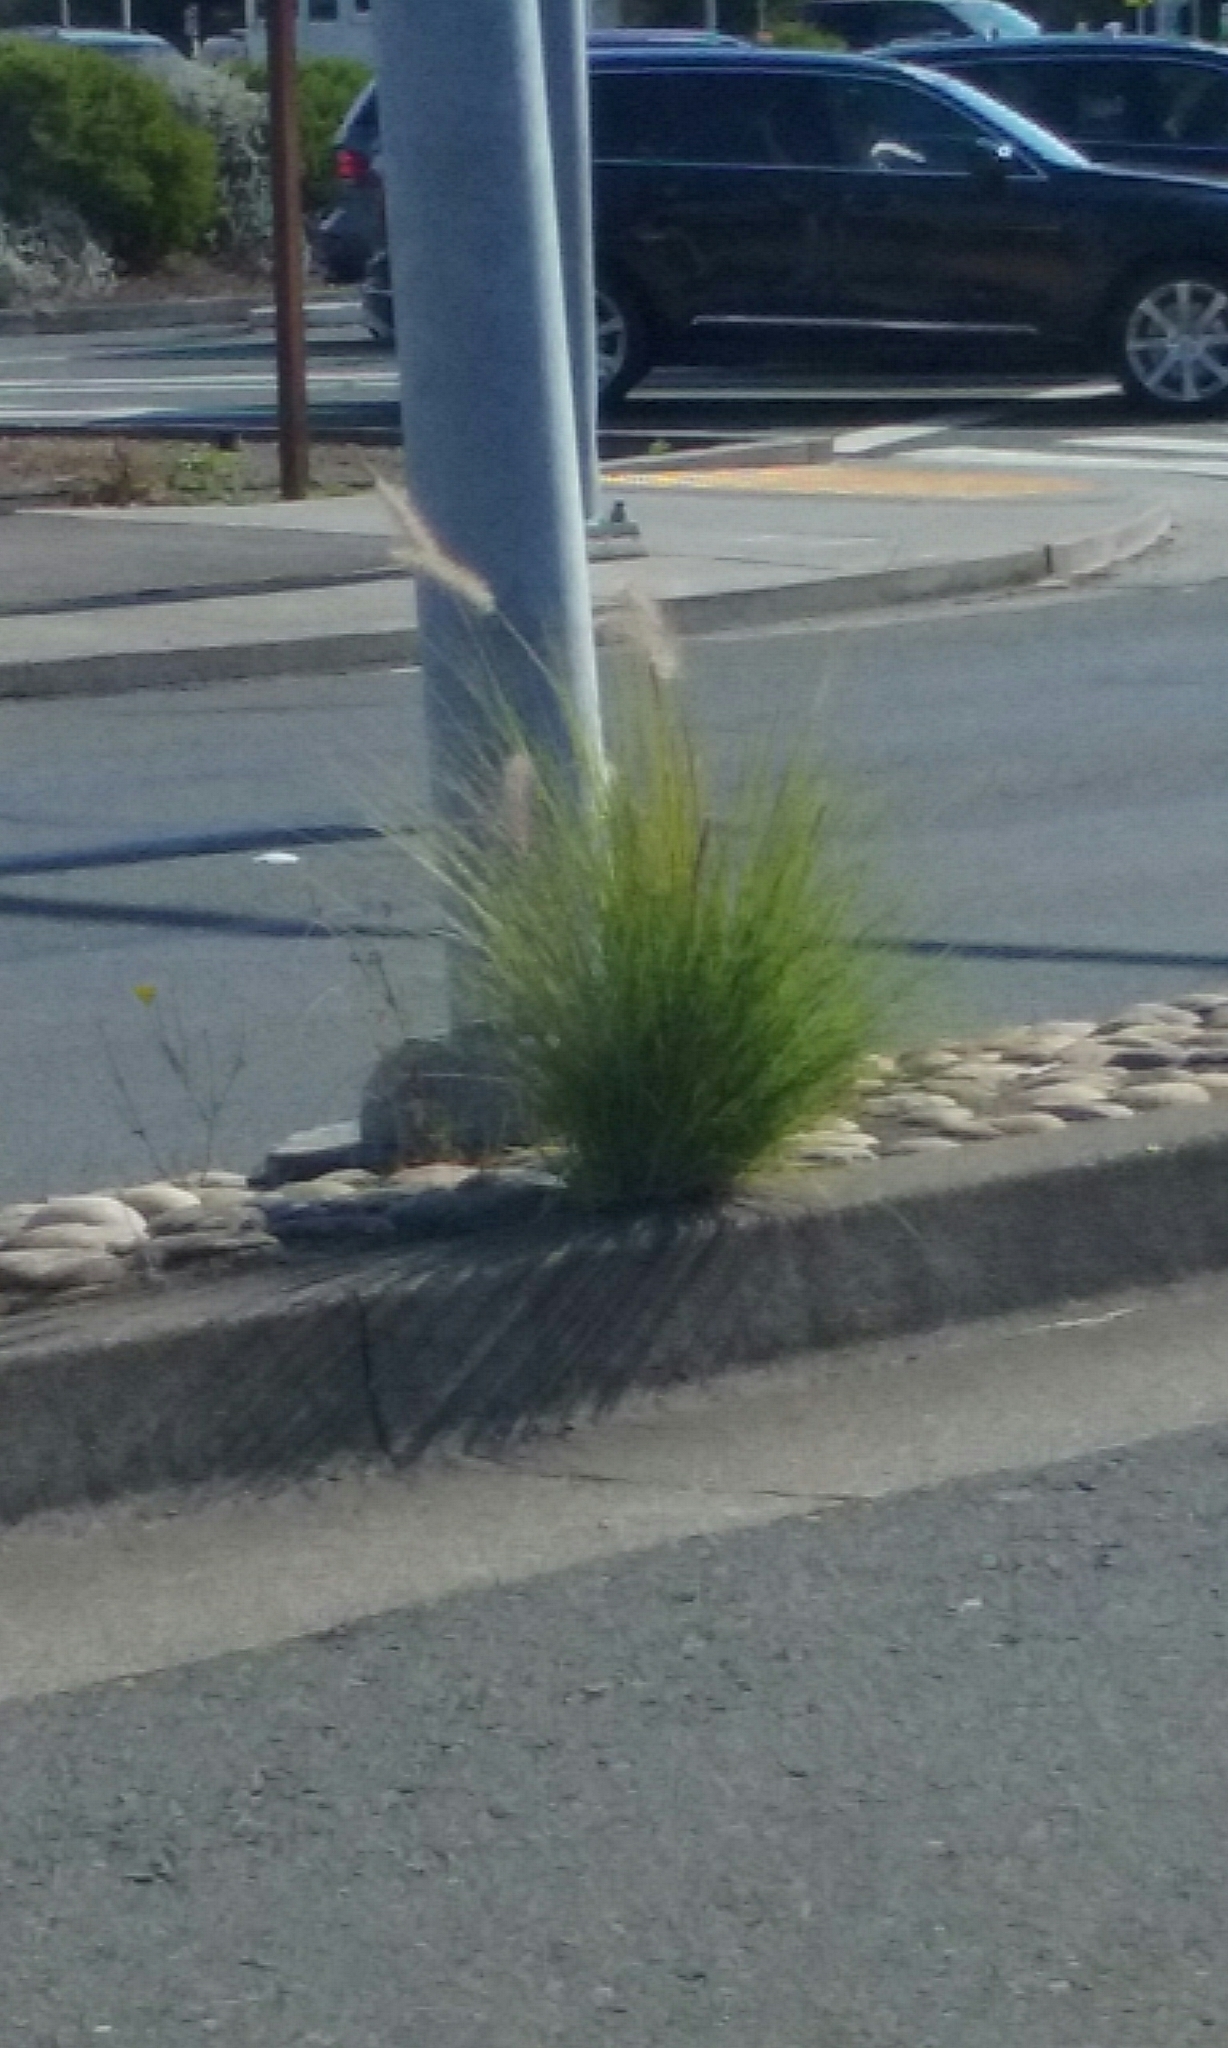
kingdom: Plantae
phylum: Tracheophyta
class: Liliopsida
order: Poales
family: Poaceae
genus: Cenchrus
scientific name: Cenchrus setaceus
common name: Crimson fountaingrass
